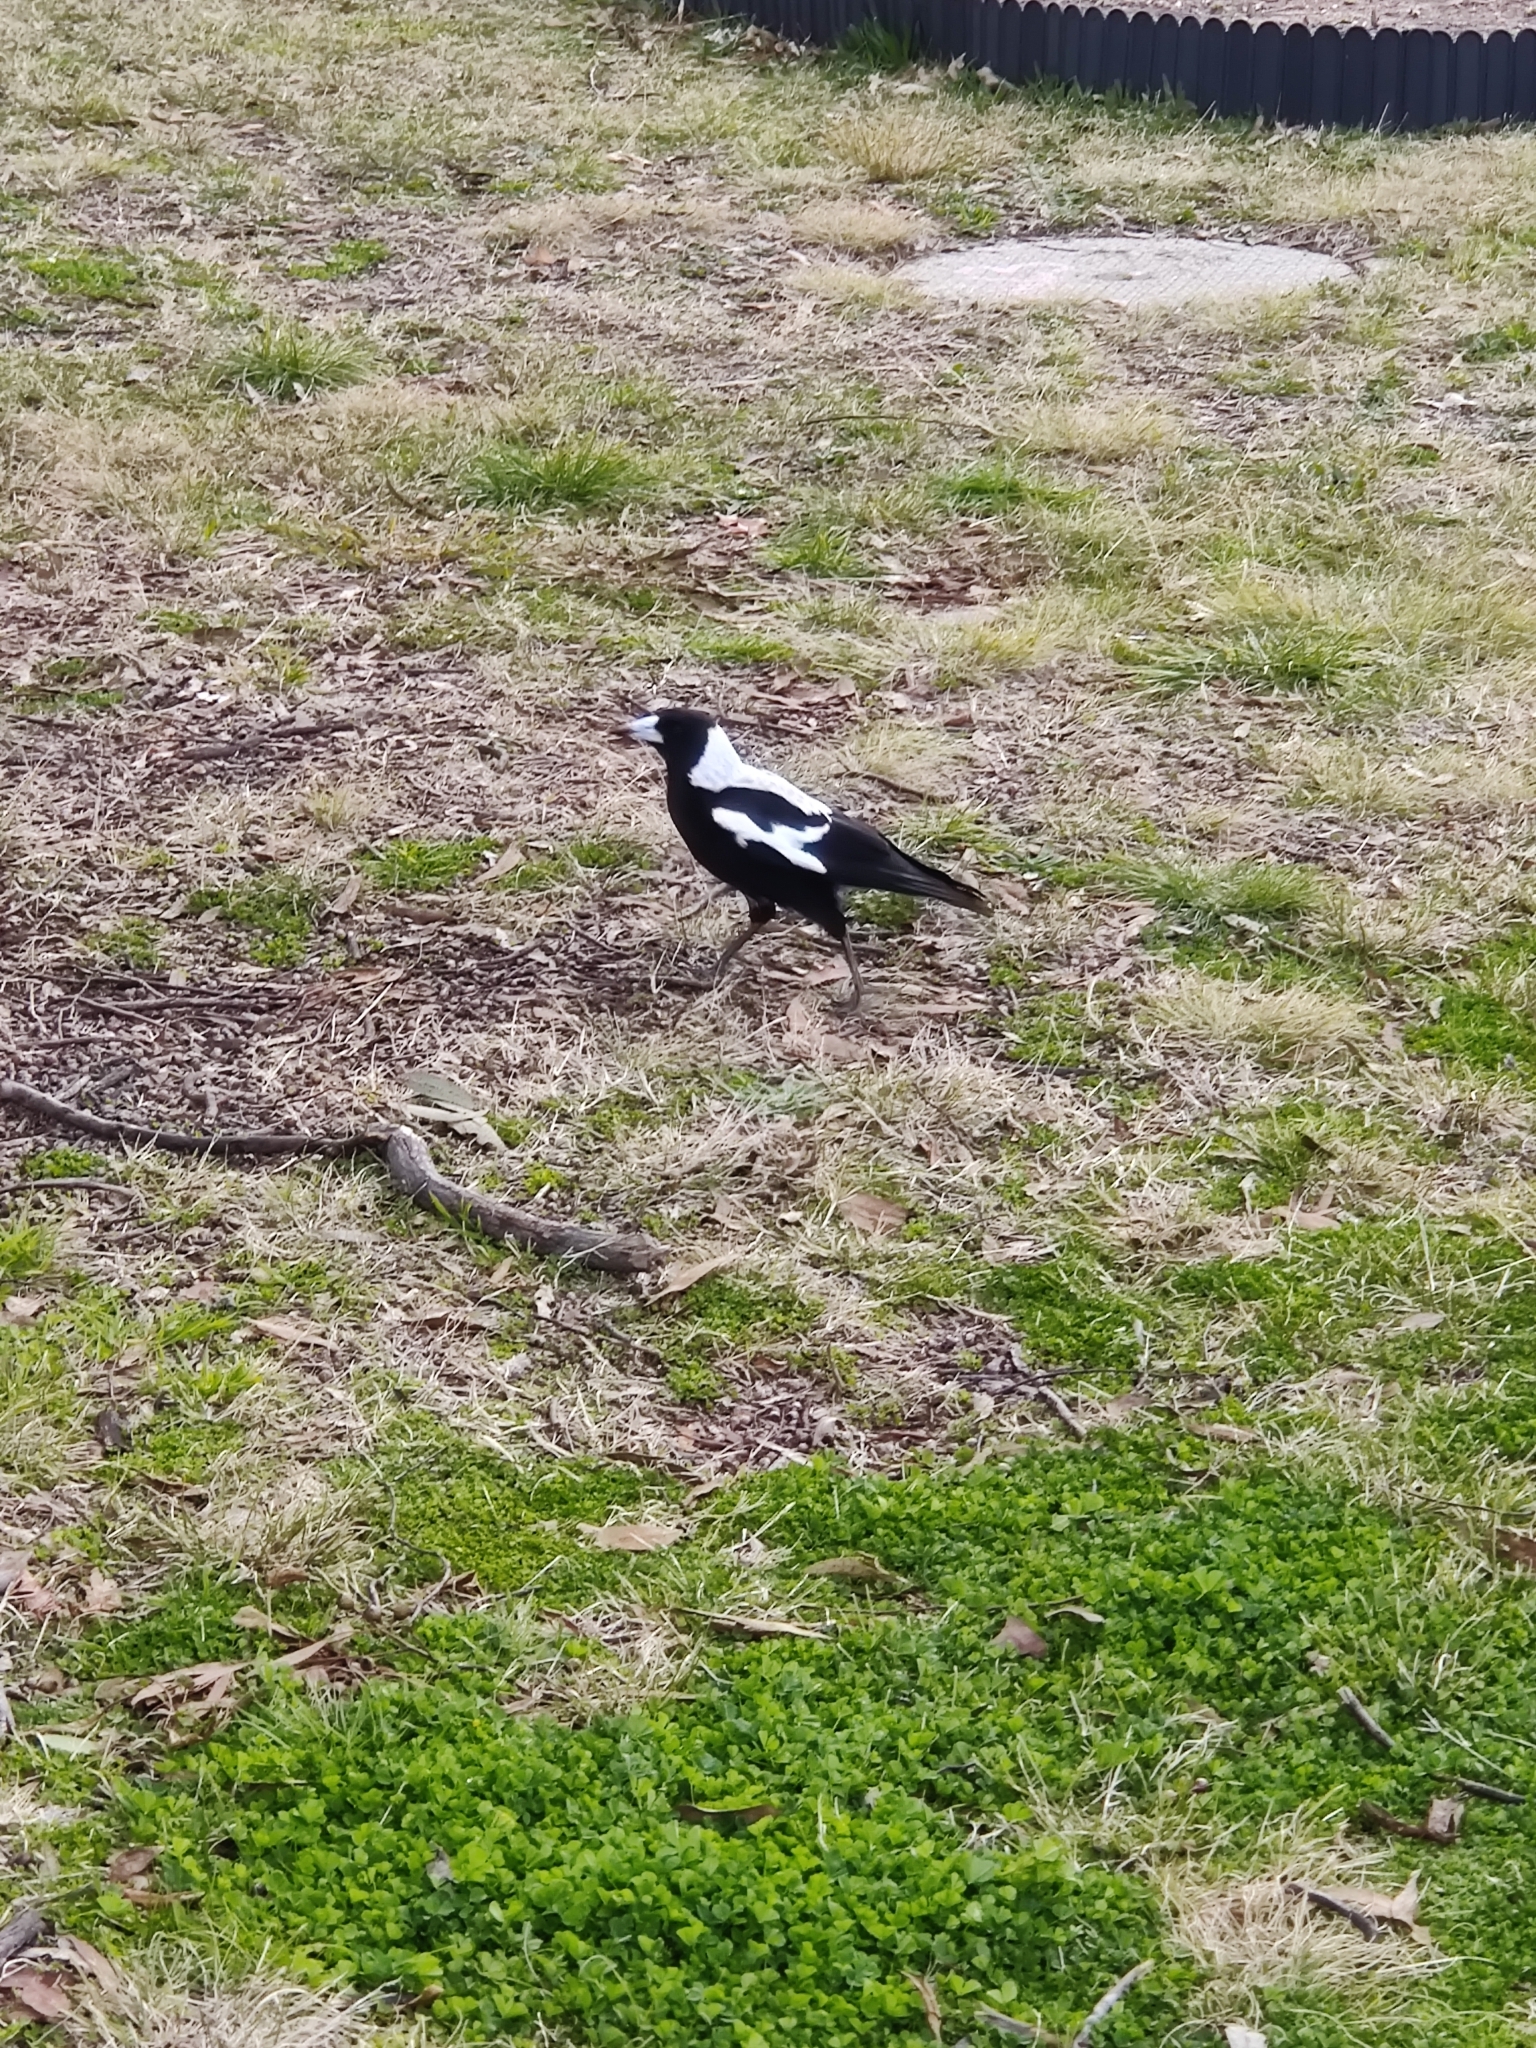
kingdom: Animalia
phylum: Chordata
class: Aves
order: Passeriformes
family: Cracticidae
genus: Gymnorhina
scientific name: Gymnorhina tibicen
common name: Australian magpie
